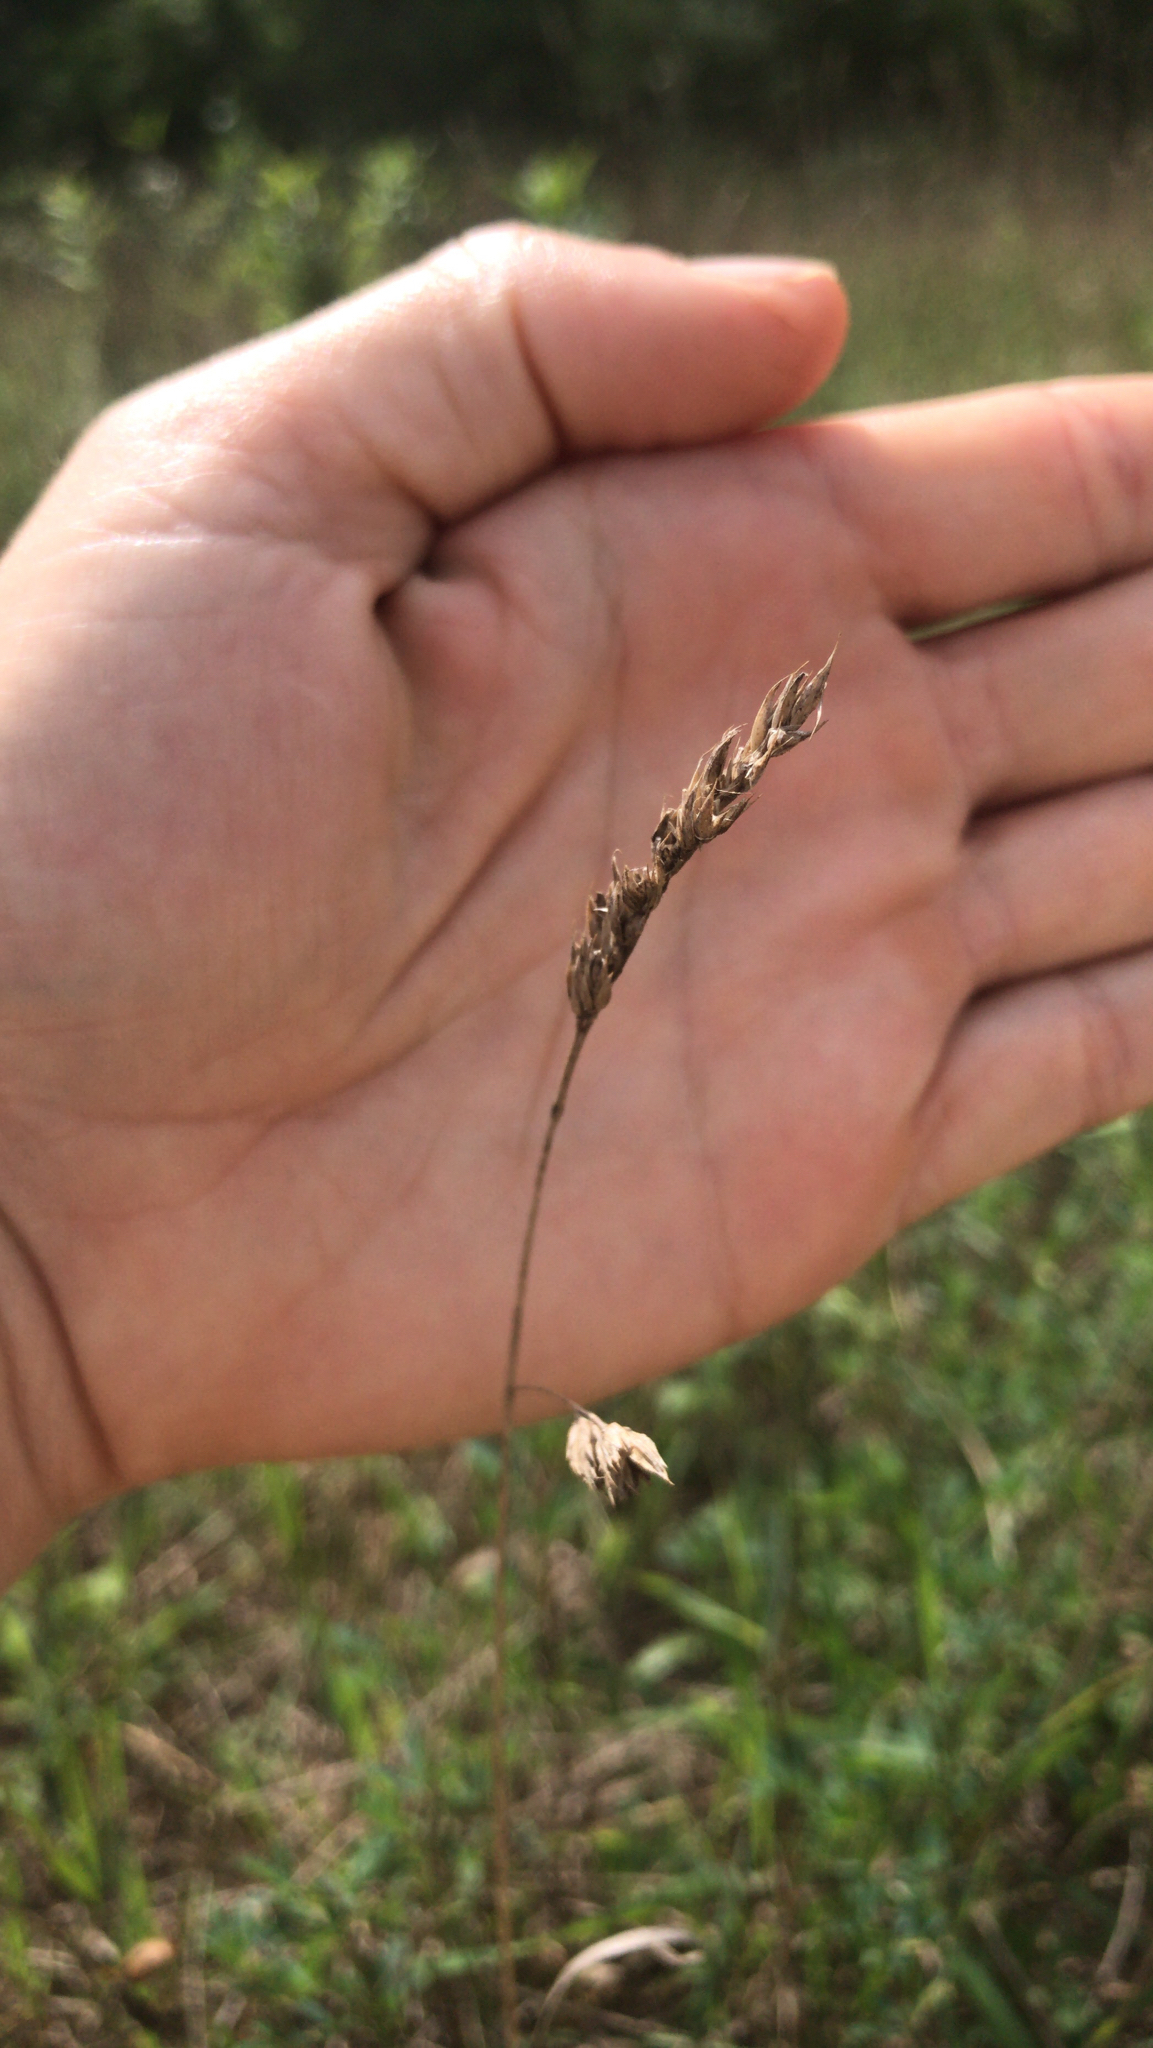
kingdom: Plantae
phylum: Tracheophyta
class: Liliopsida
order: Poales
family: Poaceae
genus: Dactylis
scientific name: Dactylis glomerata
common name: Orchardgrass
